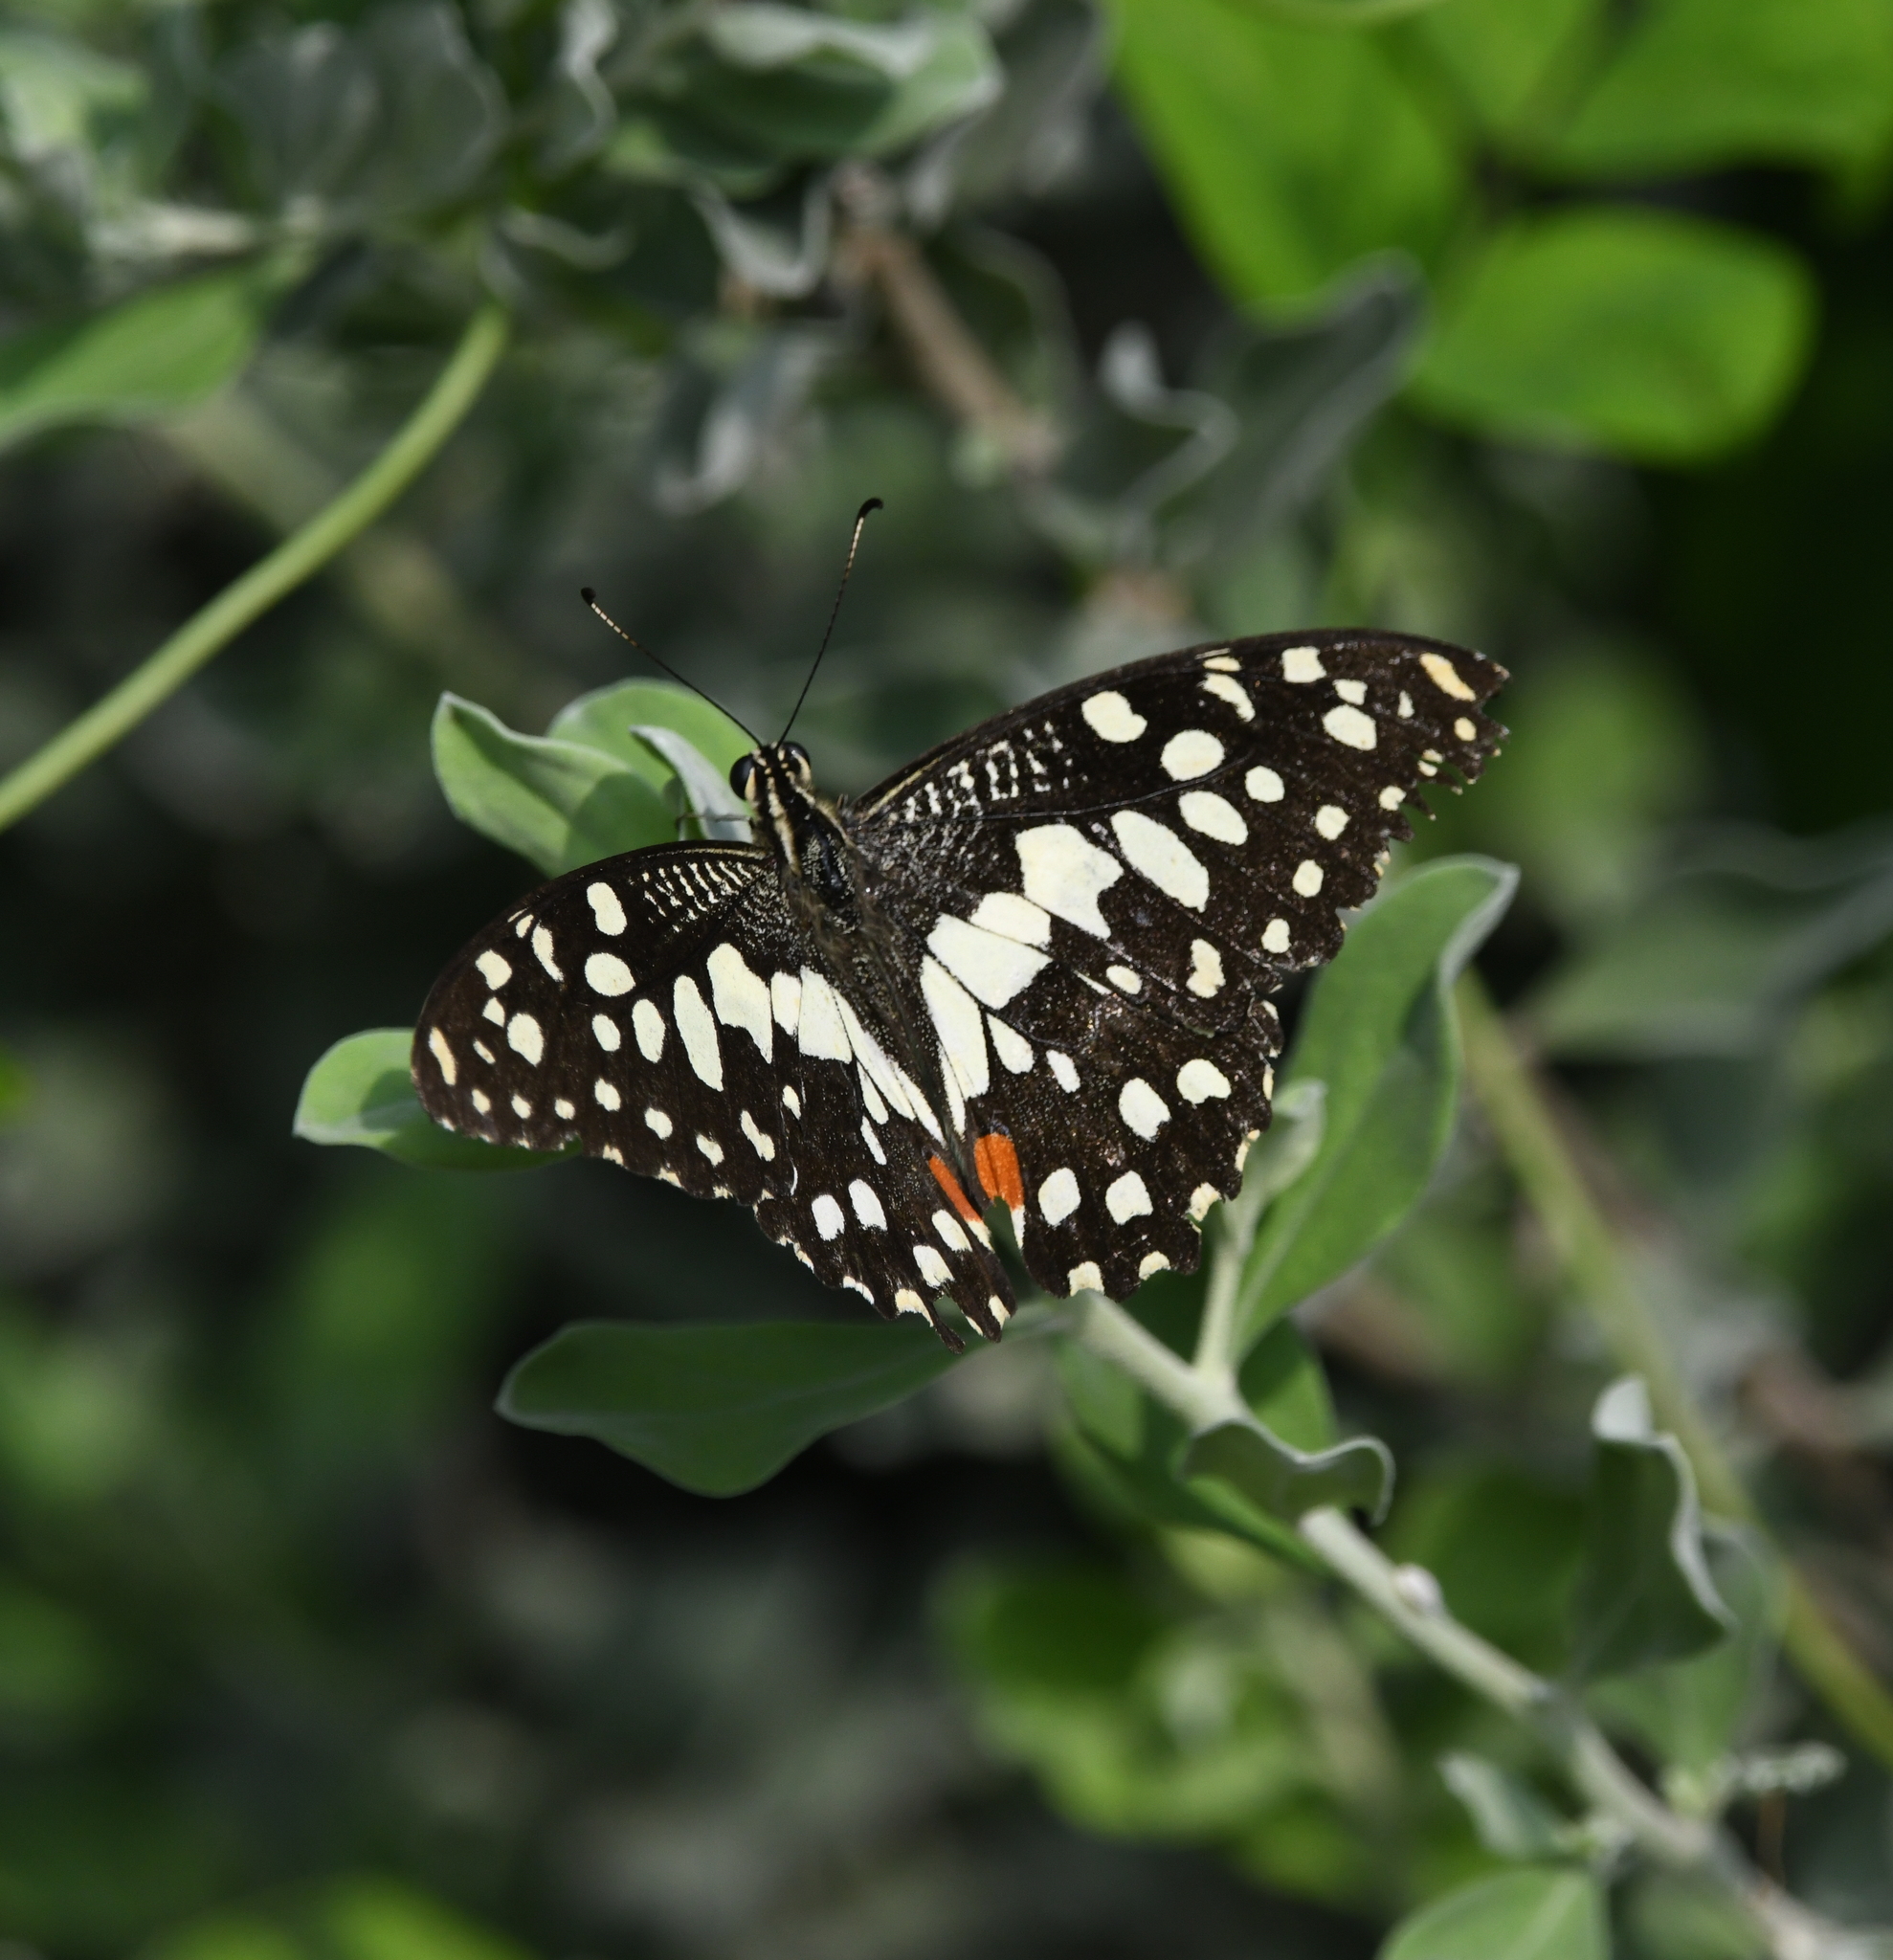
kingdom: Animalia
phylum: Arthropoda
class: Insecta
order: Lepidoptera
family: Papilionidae
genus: Papilio
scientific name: Papilio demoleus
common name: Lime butterfly
